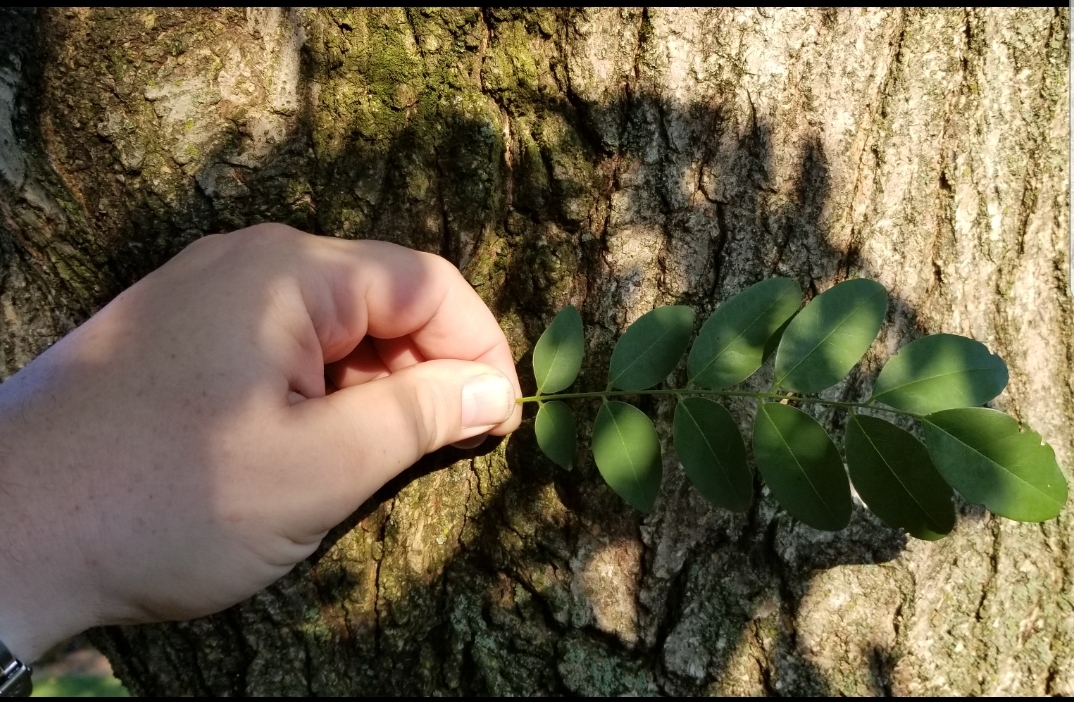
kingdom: Plantae
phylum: Tracheophyta
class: Magnoliopsida
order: Fabales
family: Fabaceae
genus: Robinia
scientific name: Robinia pseudoacacia
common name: Black locust
